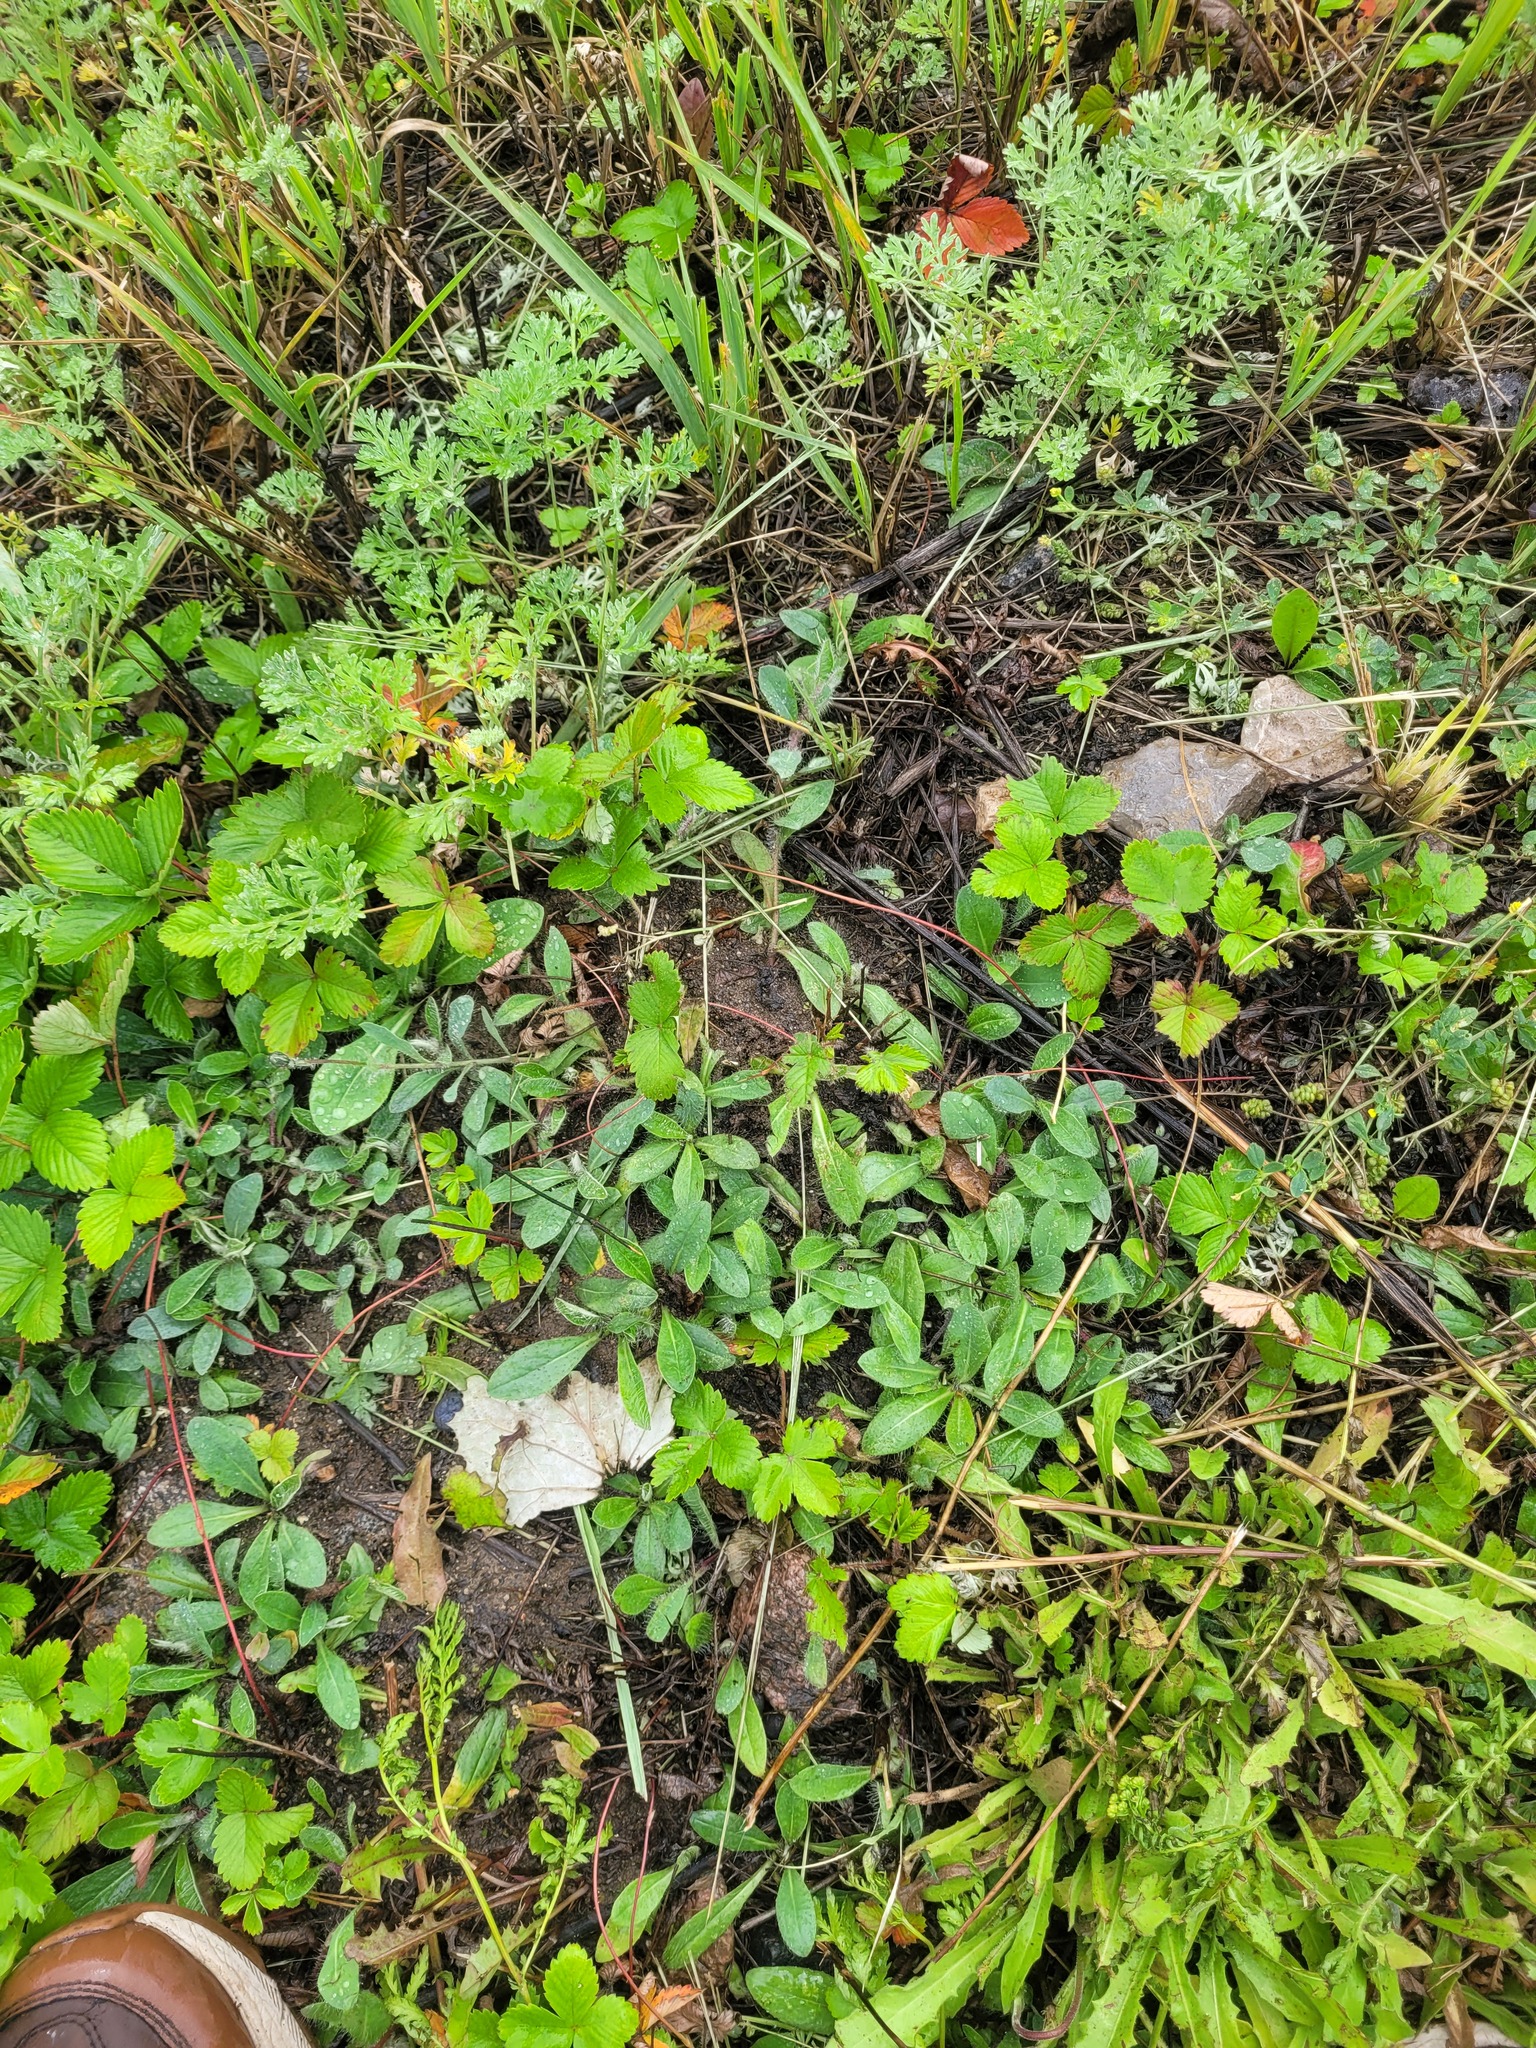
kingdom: Plantae
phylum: Tracheophyta
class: Magnoliopsida
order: Asterales
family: Asteraceae
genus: Pilosella
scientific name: Pilosella officinarum
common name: Mouse-ear hawkweed
